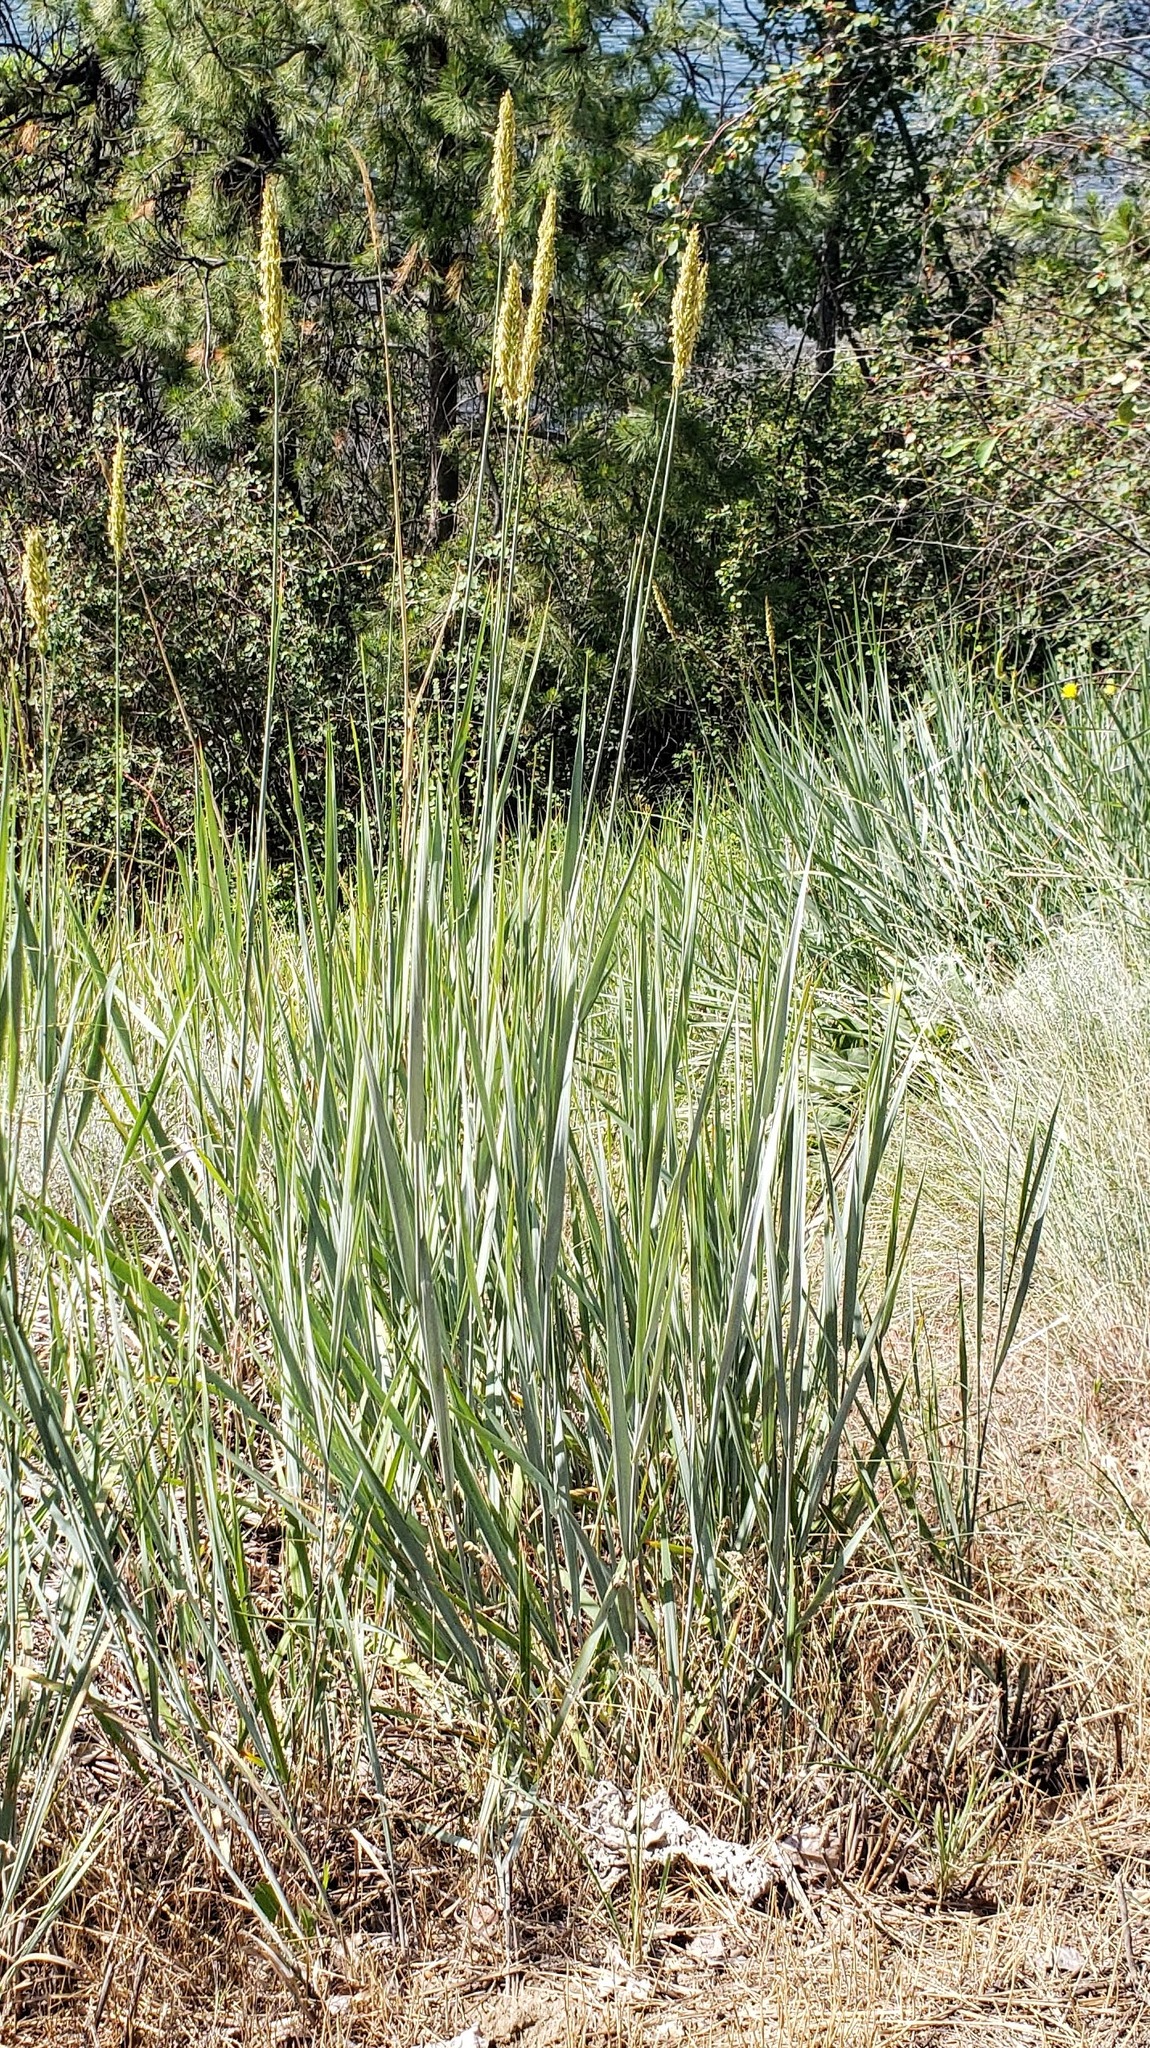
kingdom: Plantae
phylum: Tracheophyta
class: Liliopsida
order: Poales
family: Poaceae
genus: Leymus
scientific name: Leymus cinereus
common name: Basin wild rye
